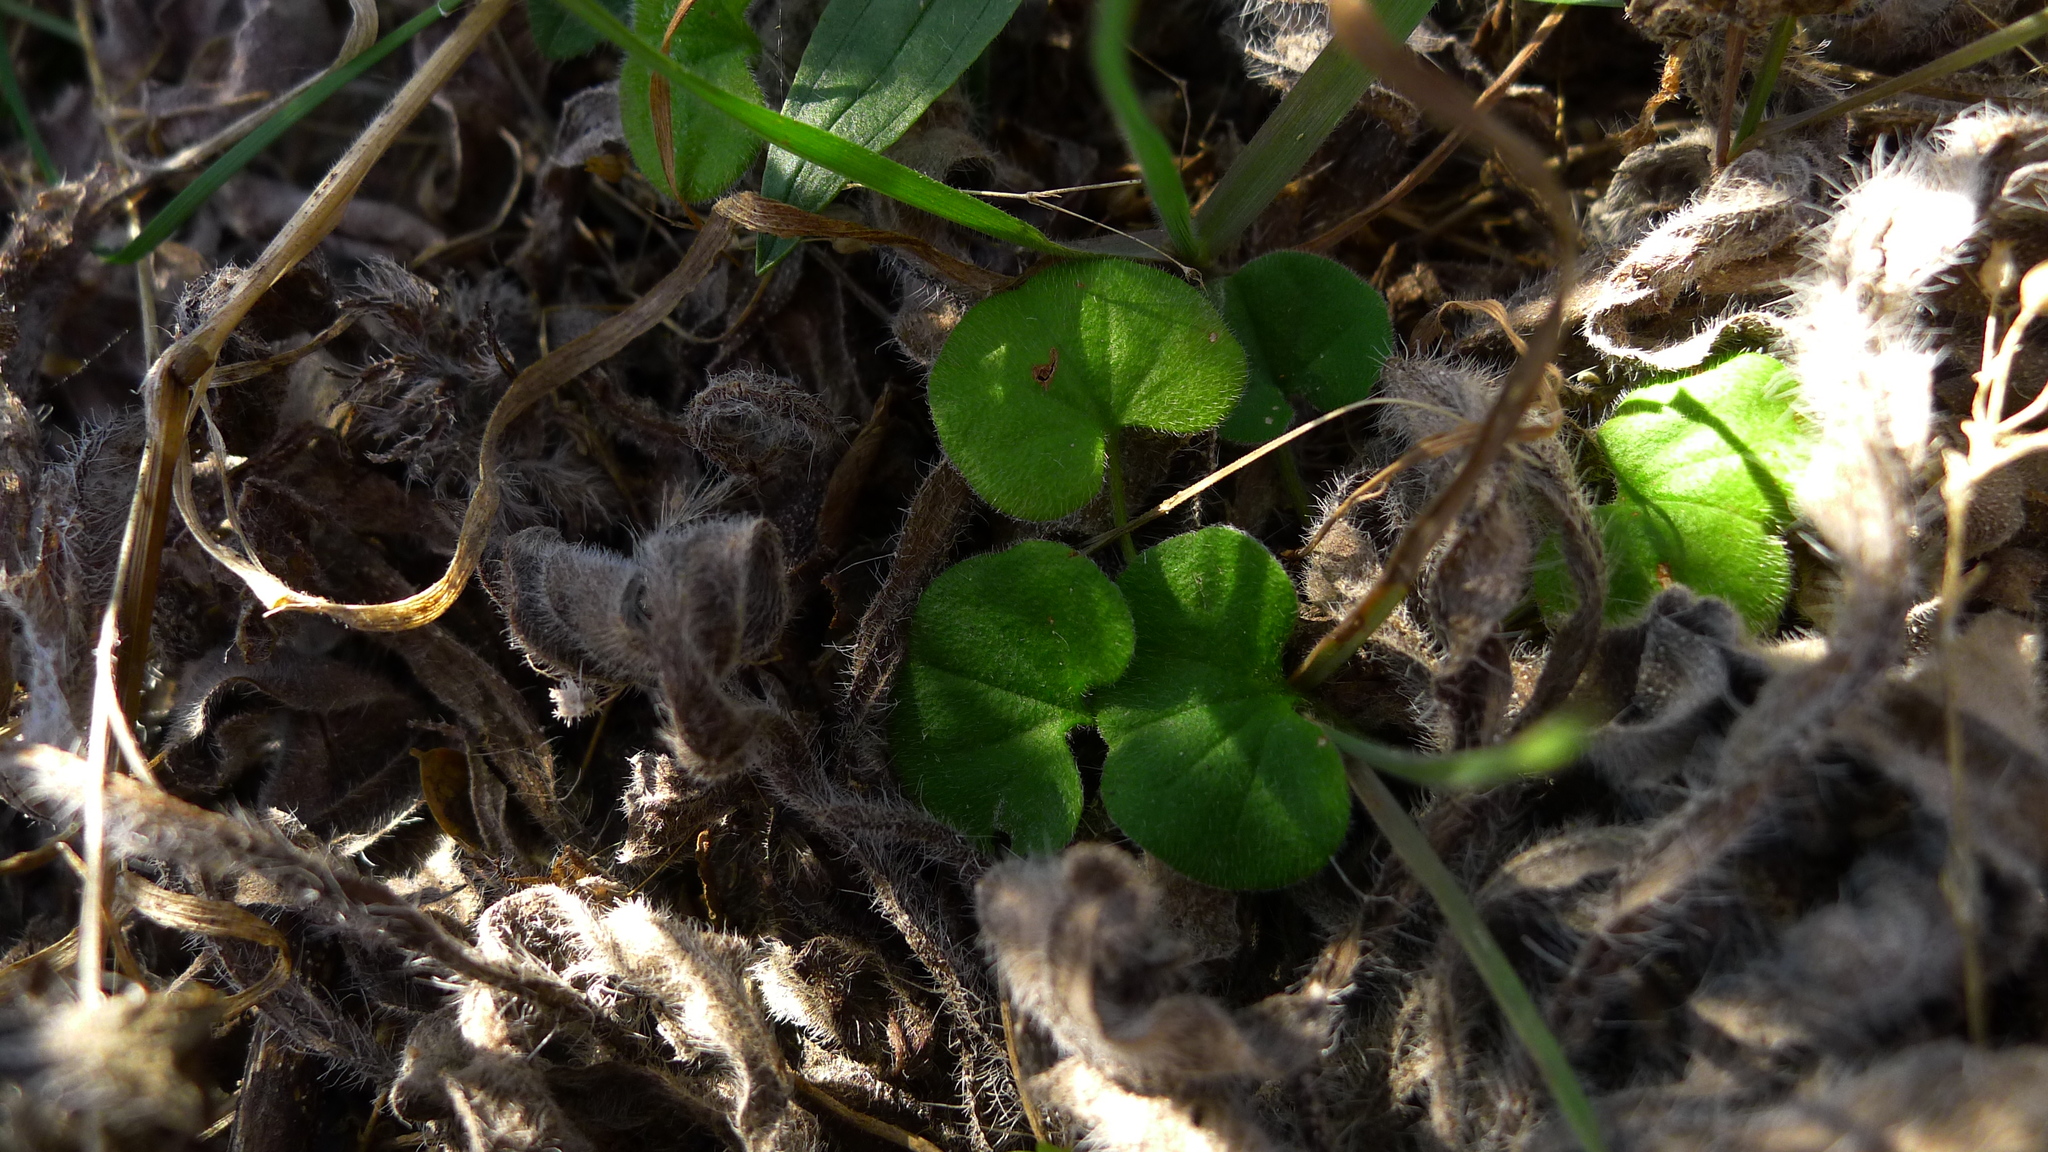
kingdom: Plantae
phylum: Tracheophyta
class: Magnoliopsida
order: Solanales
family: Convolvulaceae
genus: Dichondra
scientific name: Dichondra repens
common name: Kidneyweed
